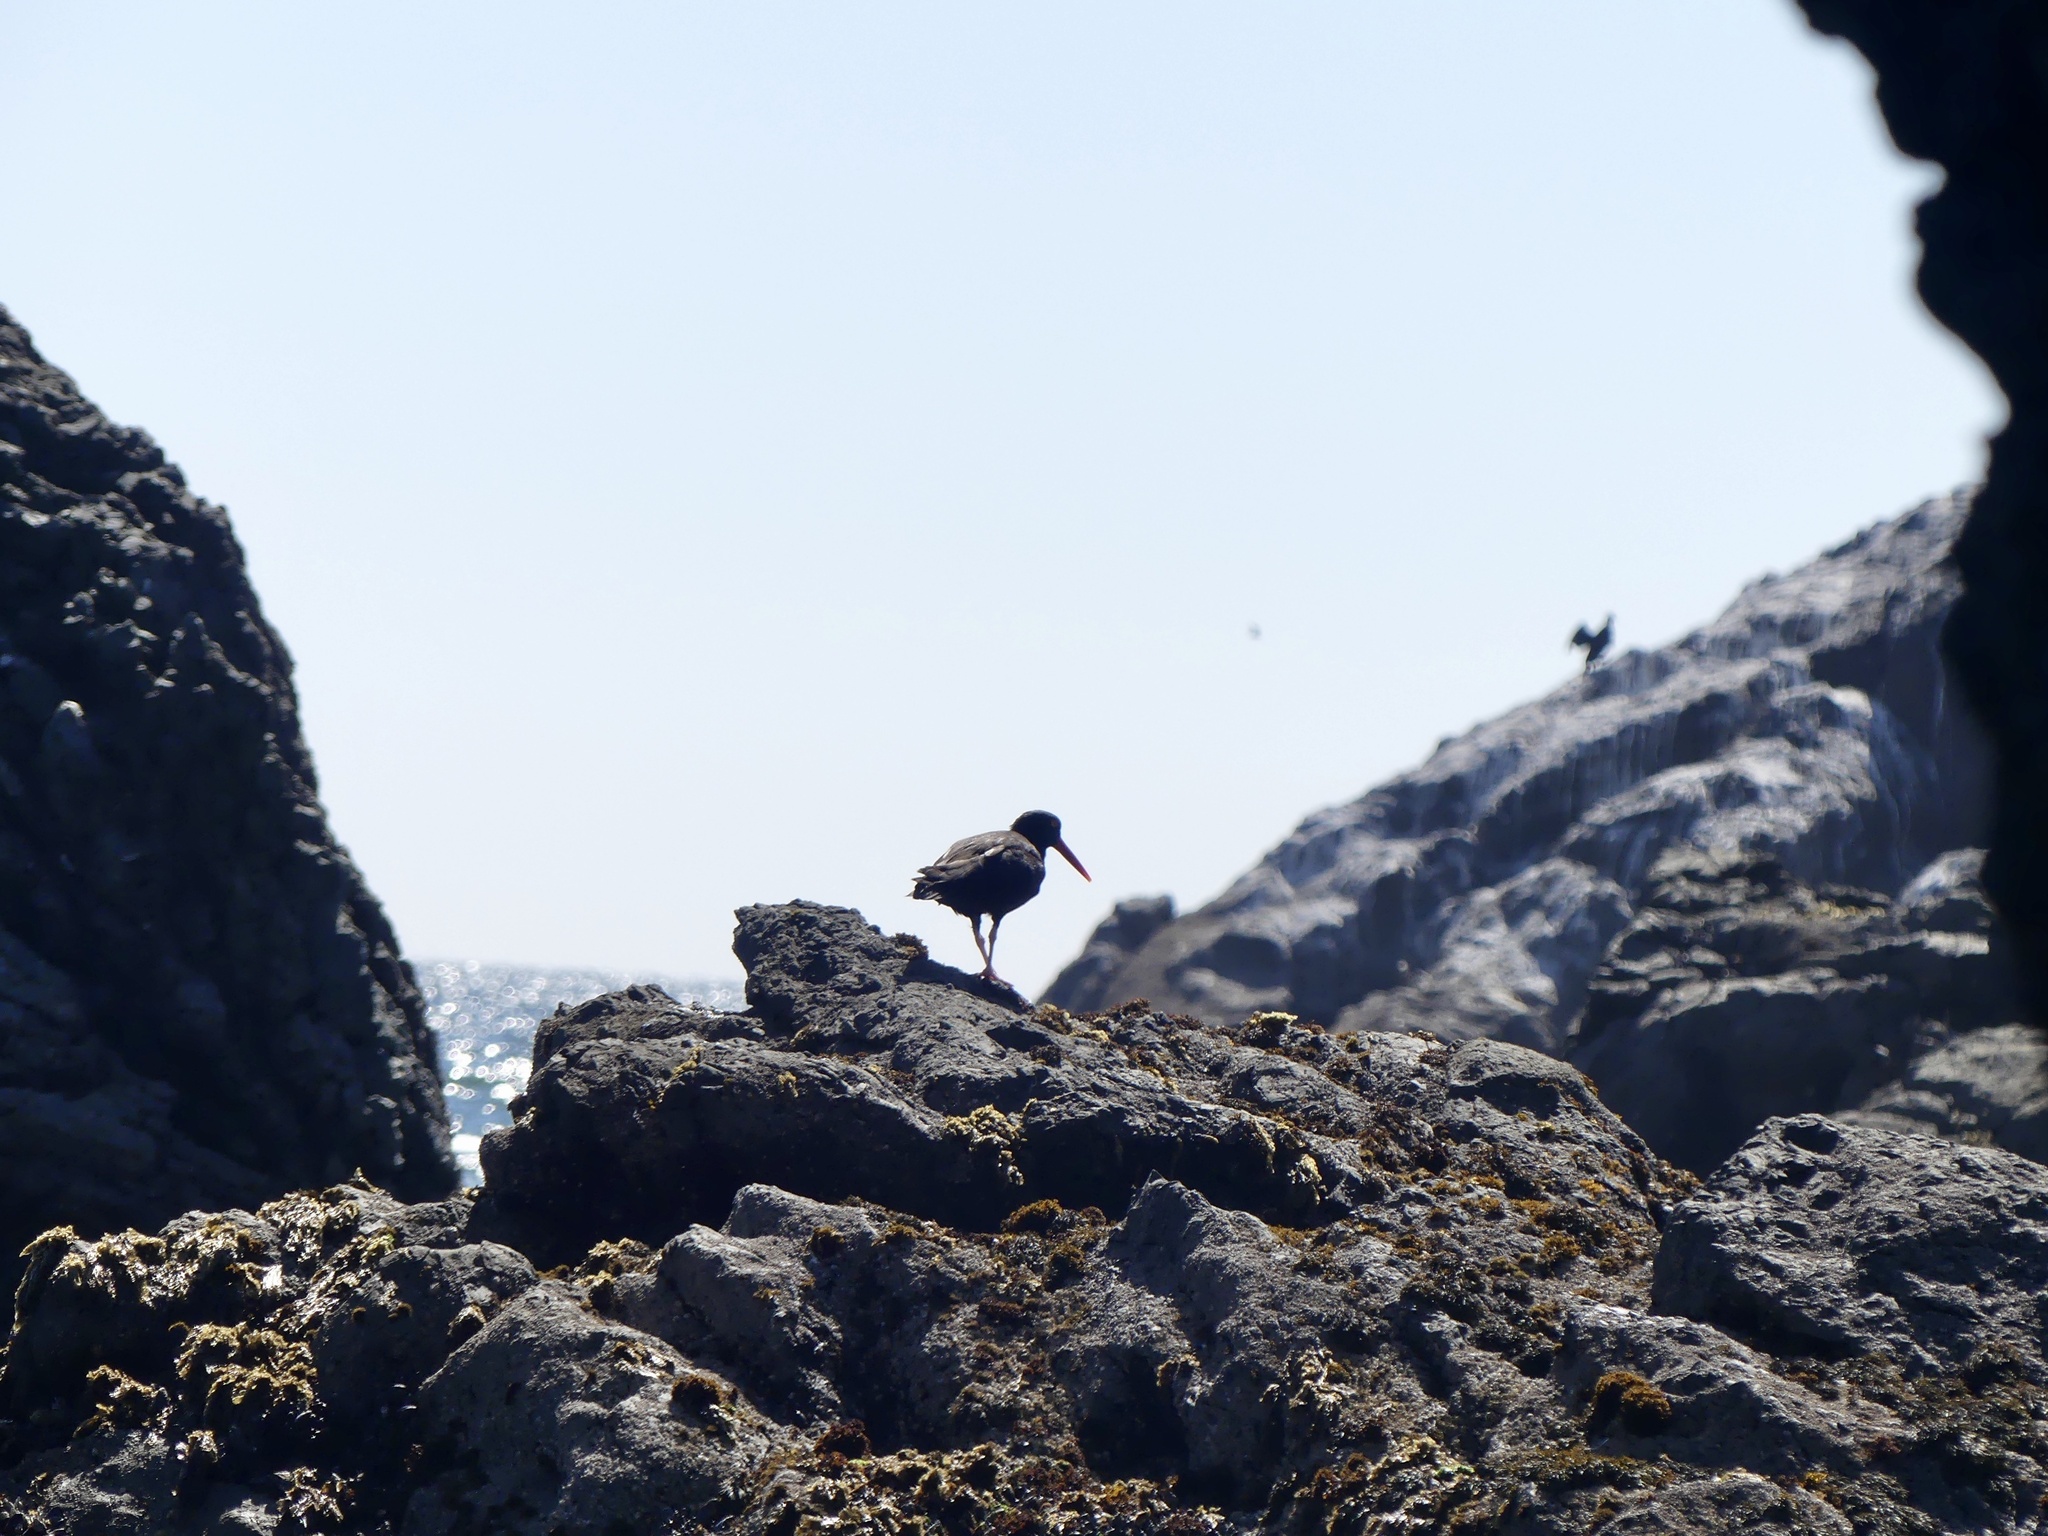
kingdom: Animalia
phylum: Chordata
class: Aves
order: Charadriiformes
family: Haematopodidae
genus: Haematopus
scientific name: Haematopus bachmani
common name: Black oystercatcher
